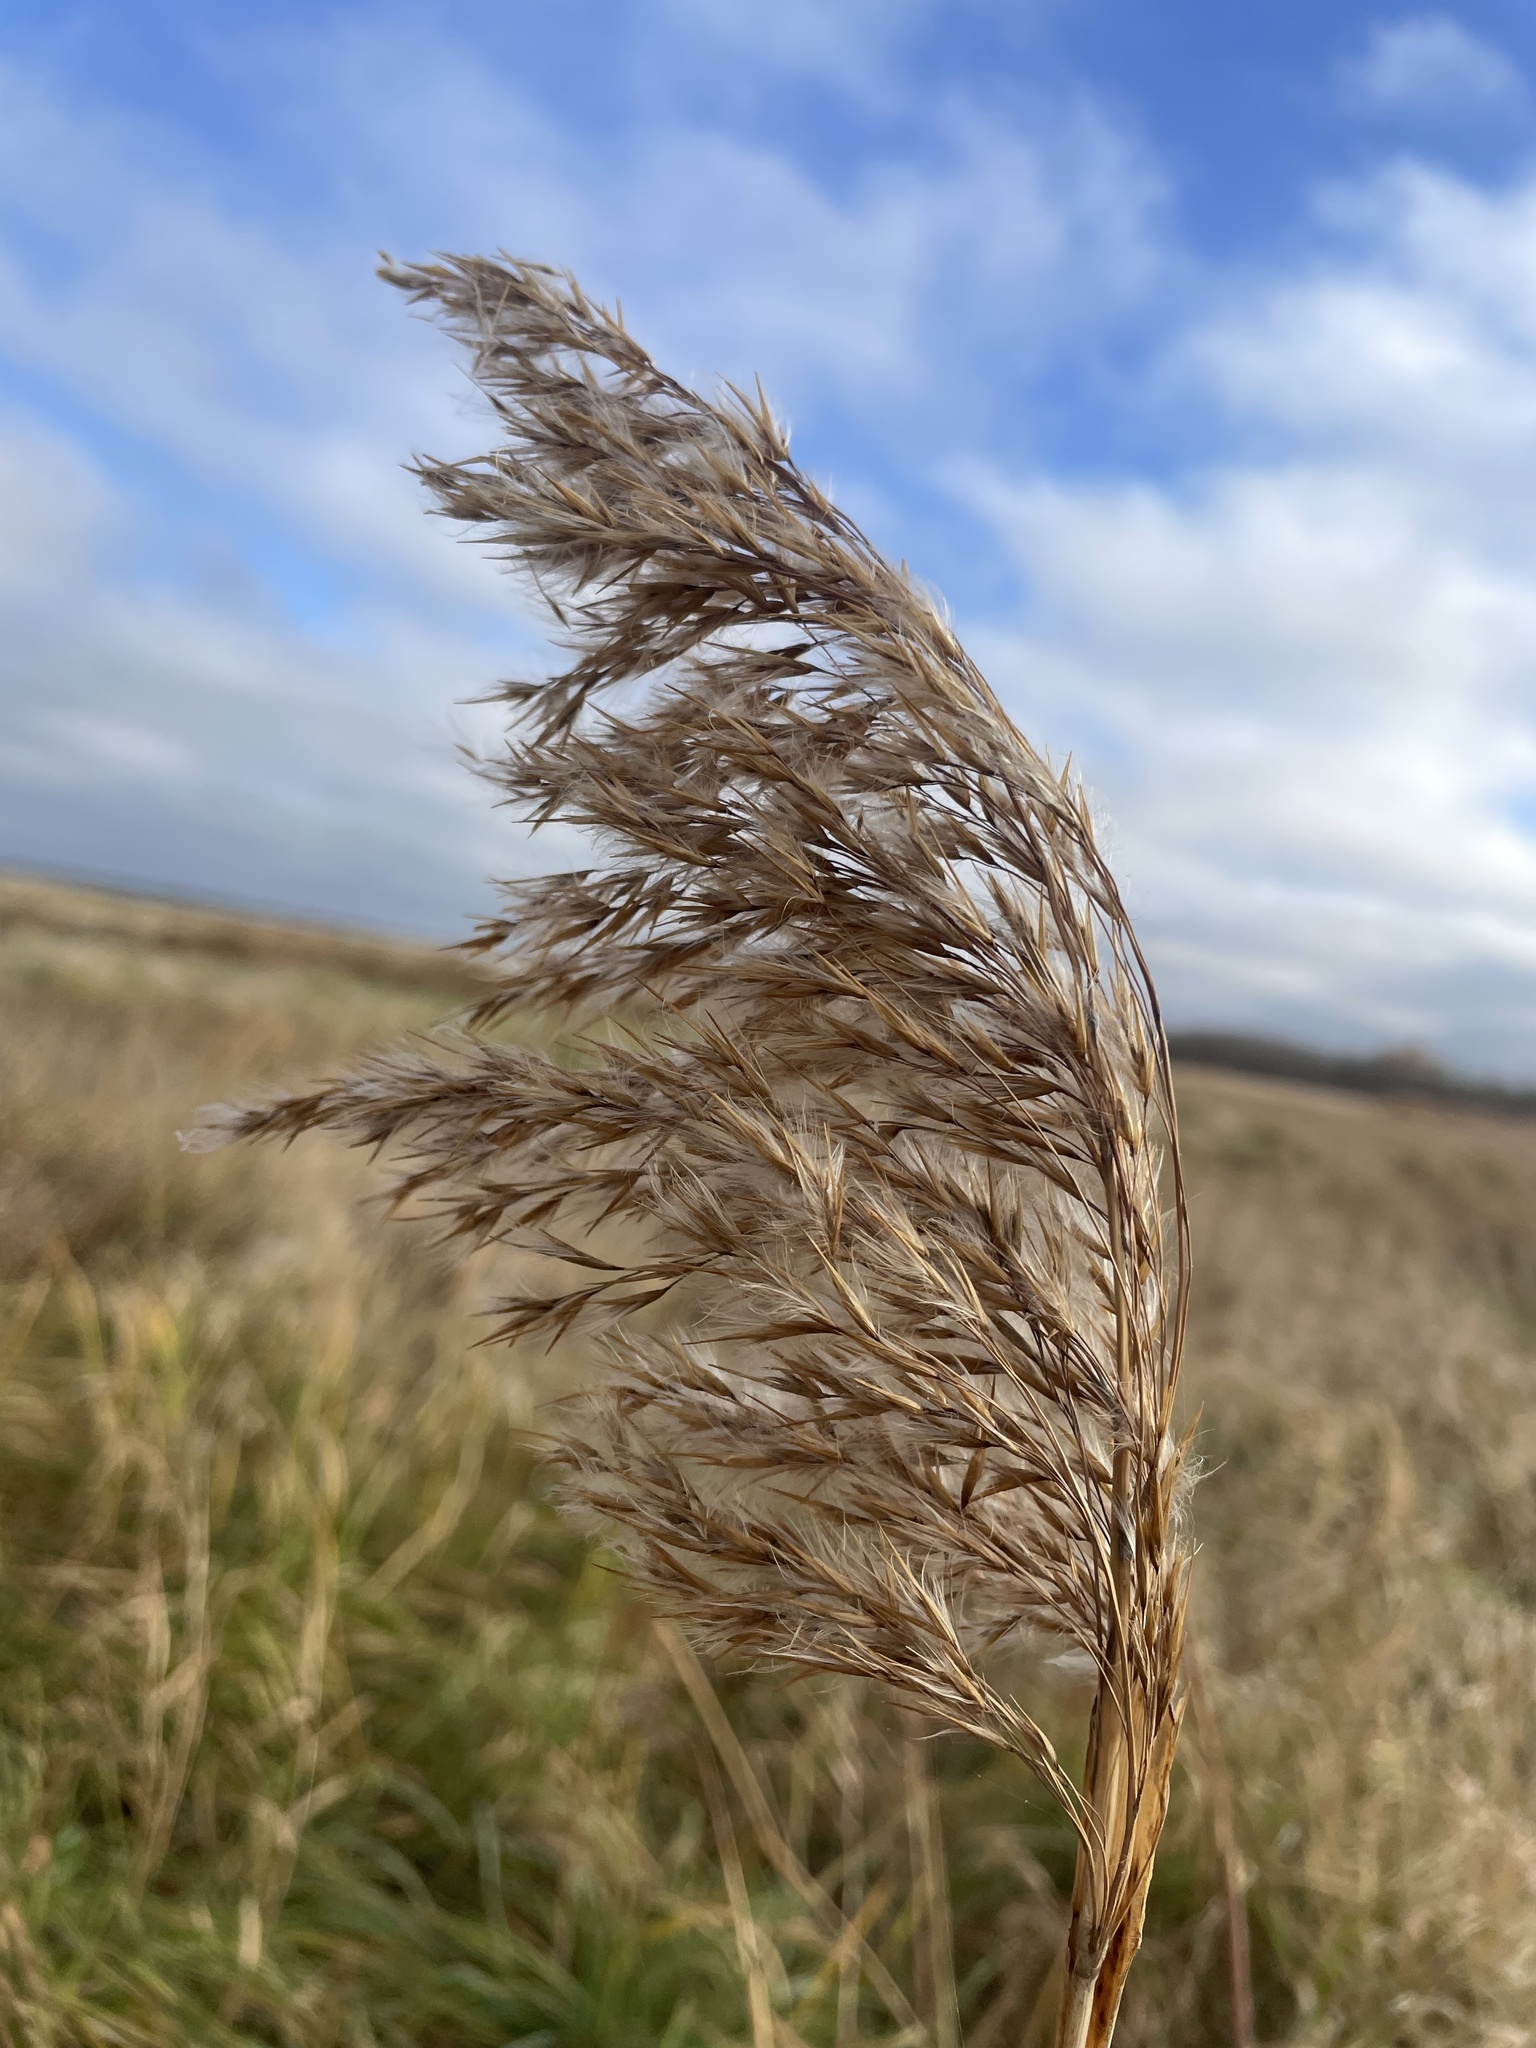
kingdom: Plantae
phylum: Tracheophyta
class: Liliopsida
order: Poales
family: Poaceae
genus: Phragmites
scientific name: Phragmites australis
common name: Common reed
